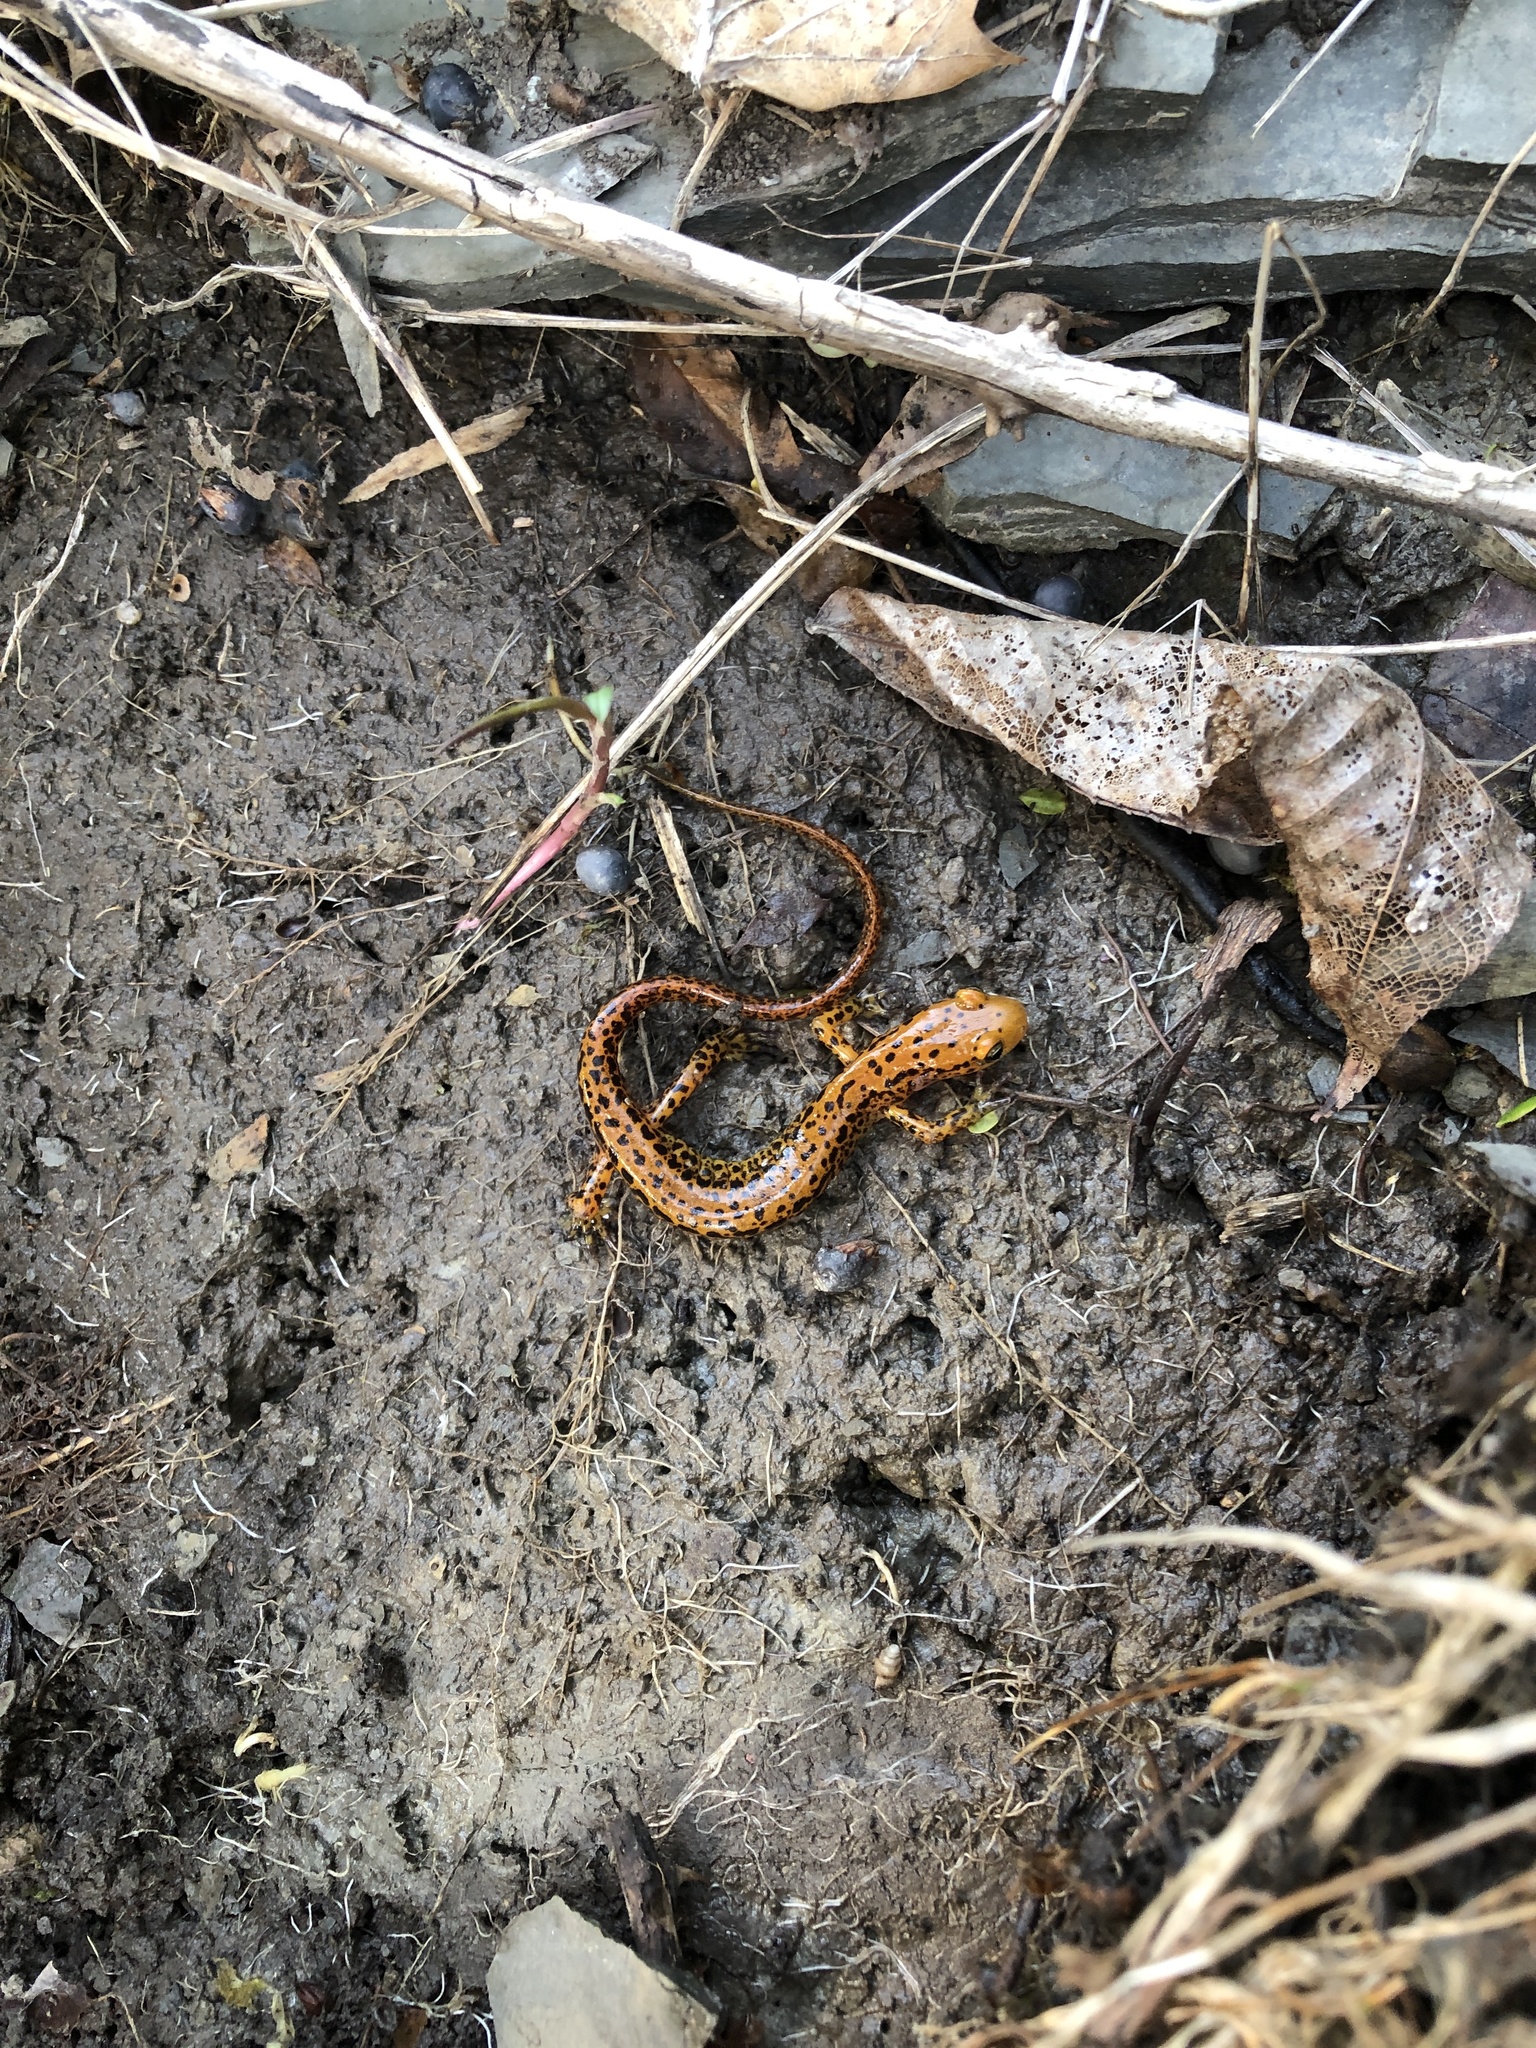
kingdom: Animalia
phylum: Chordata
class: Amphibia
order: Caudata
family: Plethodontidae
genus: Eurycea
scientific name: Eurycea longicauda
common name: Long-tailed salamander
